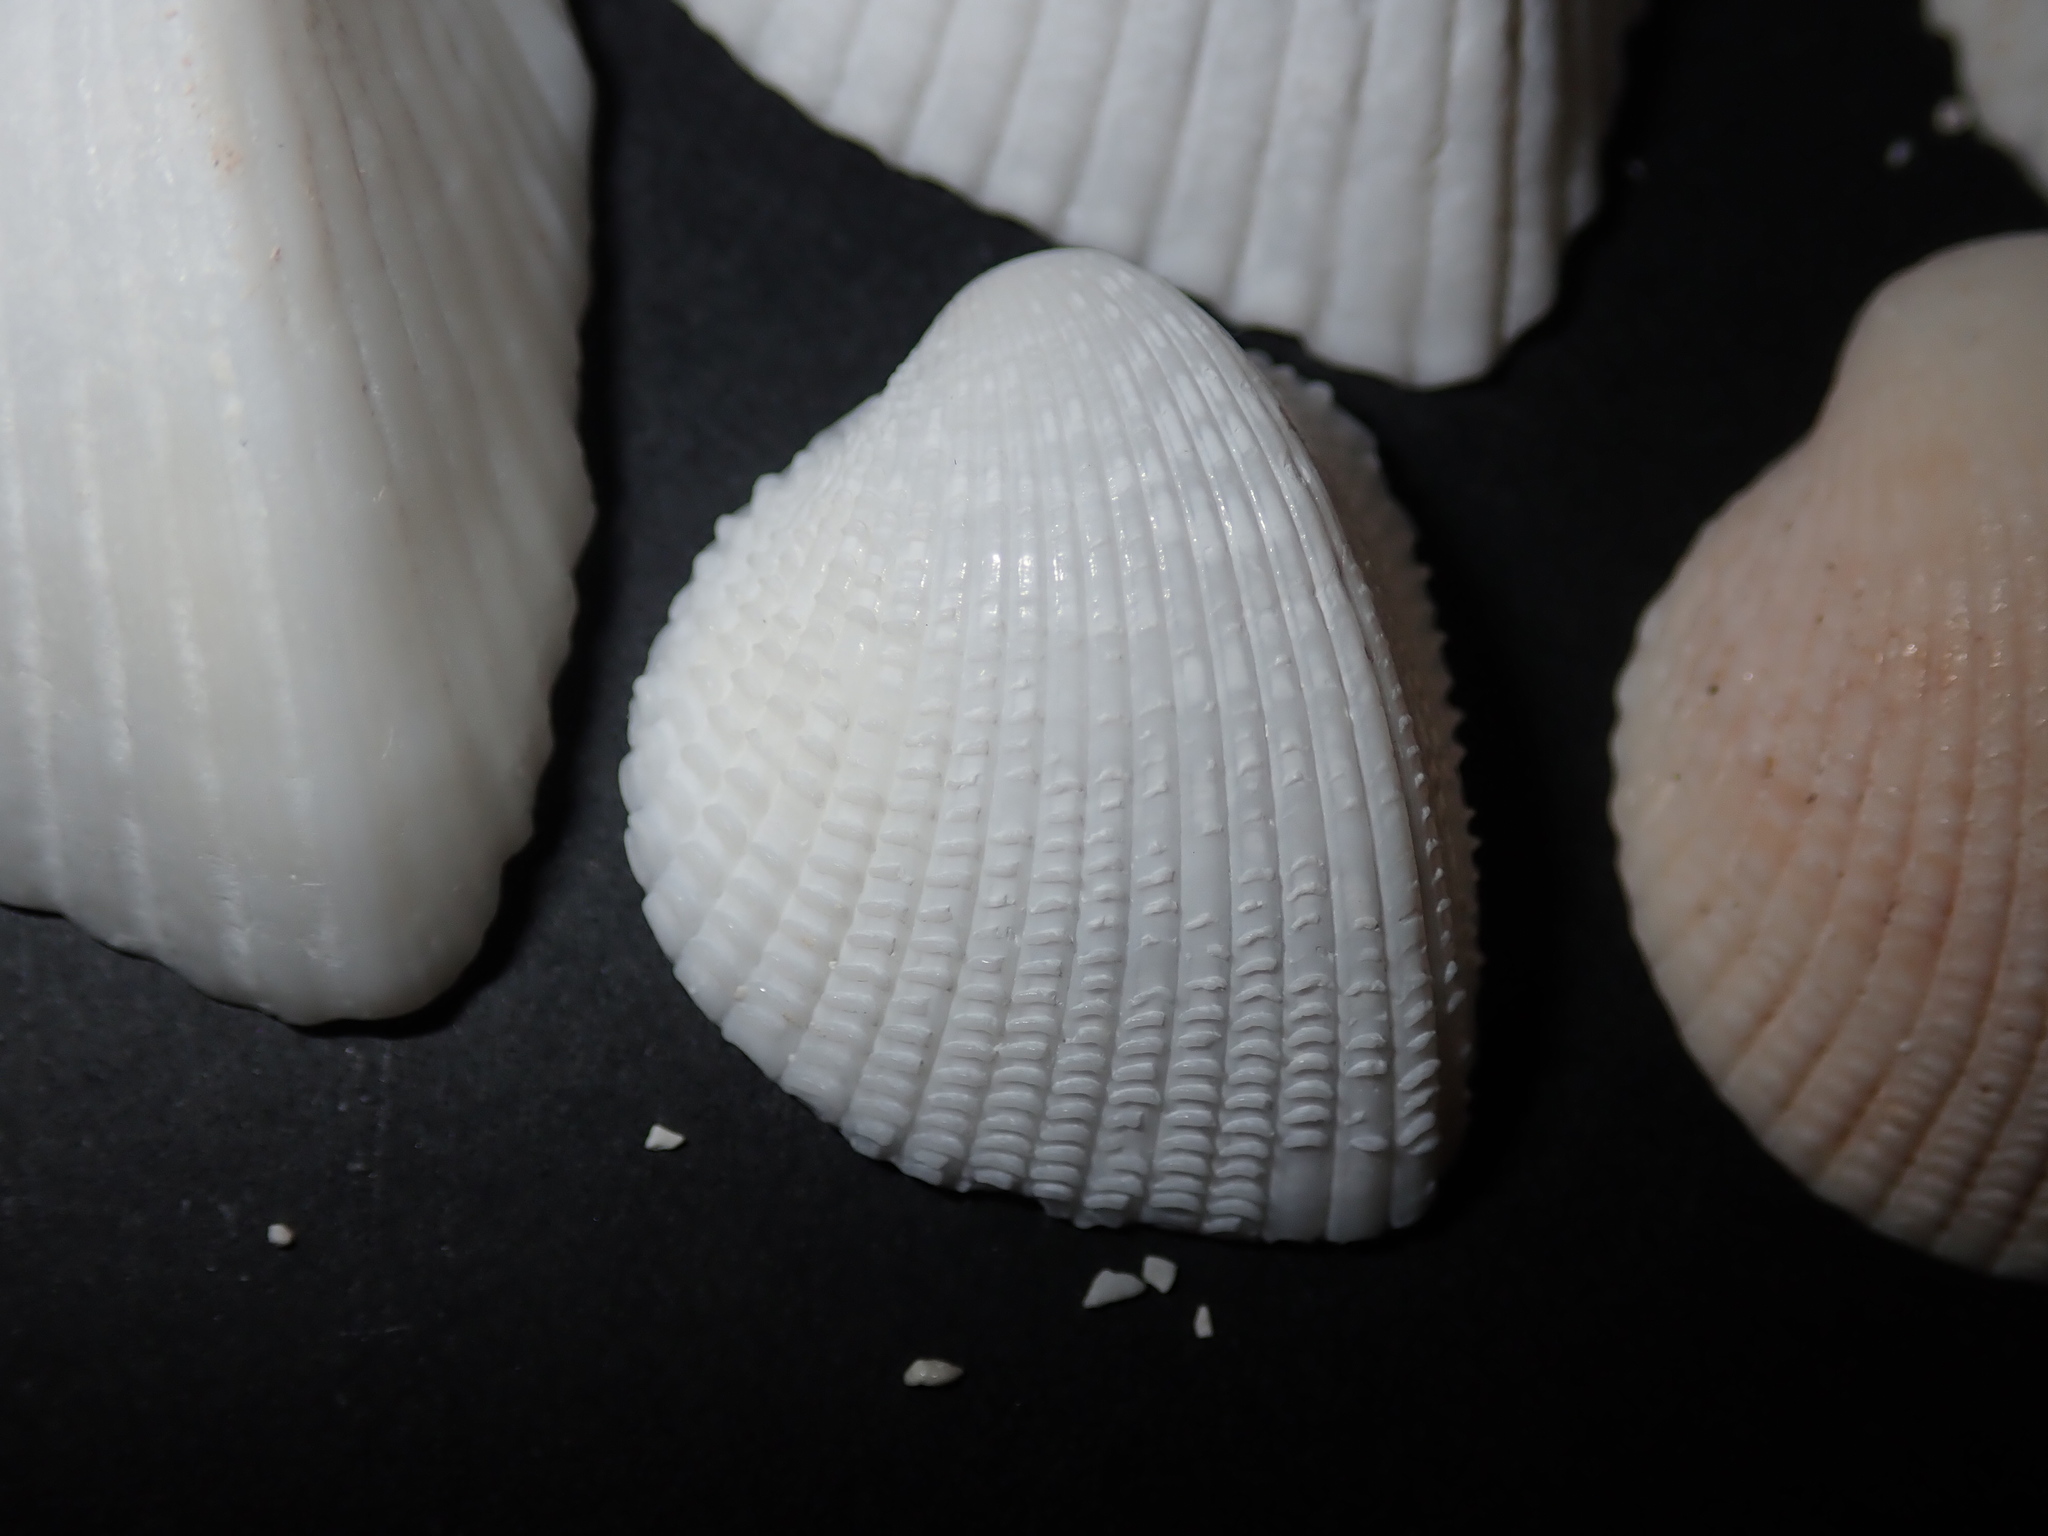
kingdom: Animalia
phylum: Mollusca
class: Bivalvia
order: Cardiida
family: Cardiidae
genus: Fragum
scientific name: Fragum fragum
